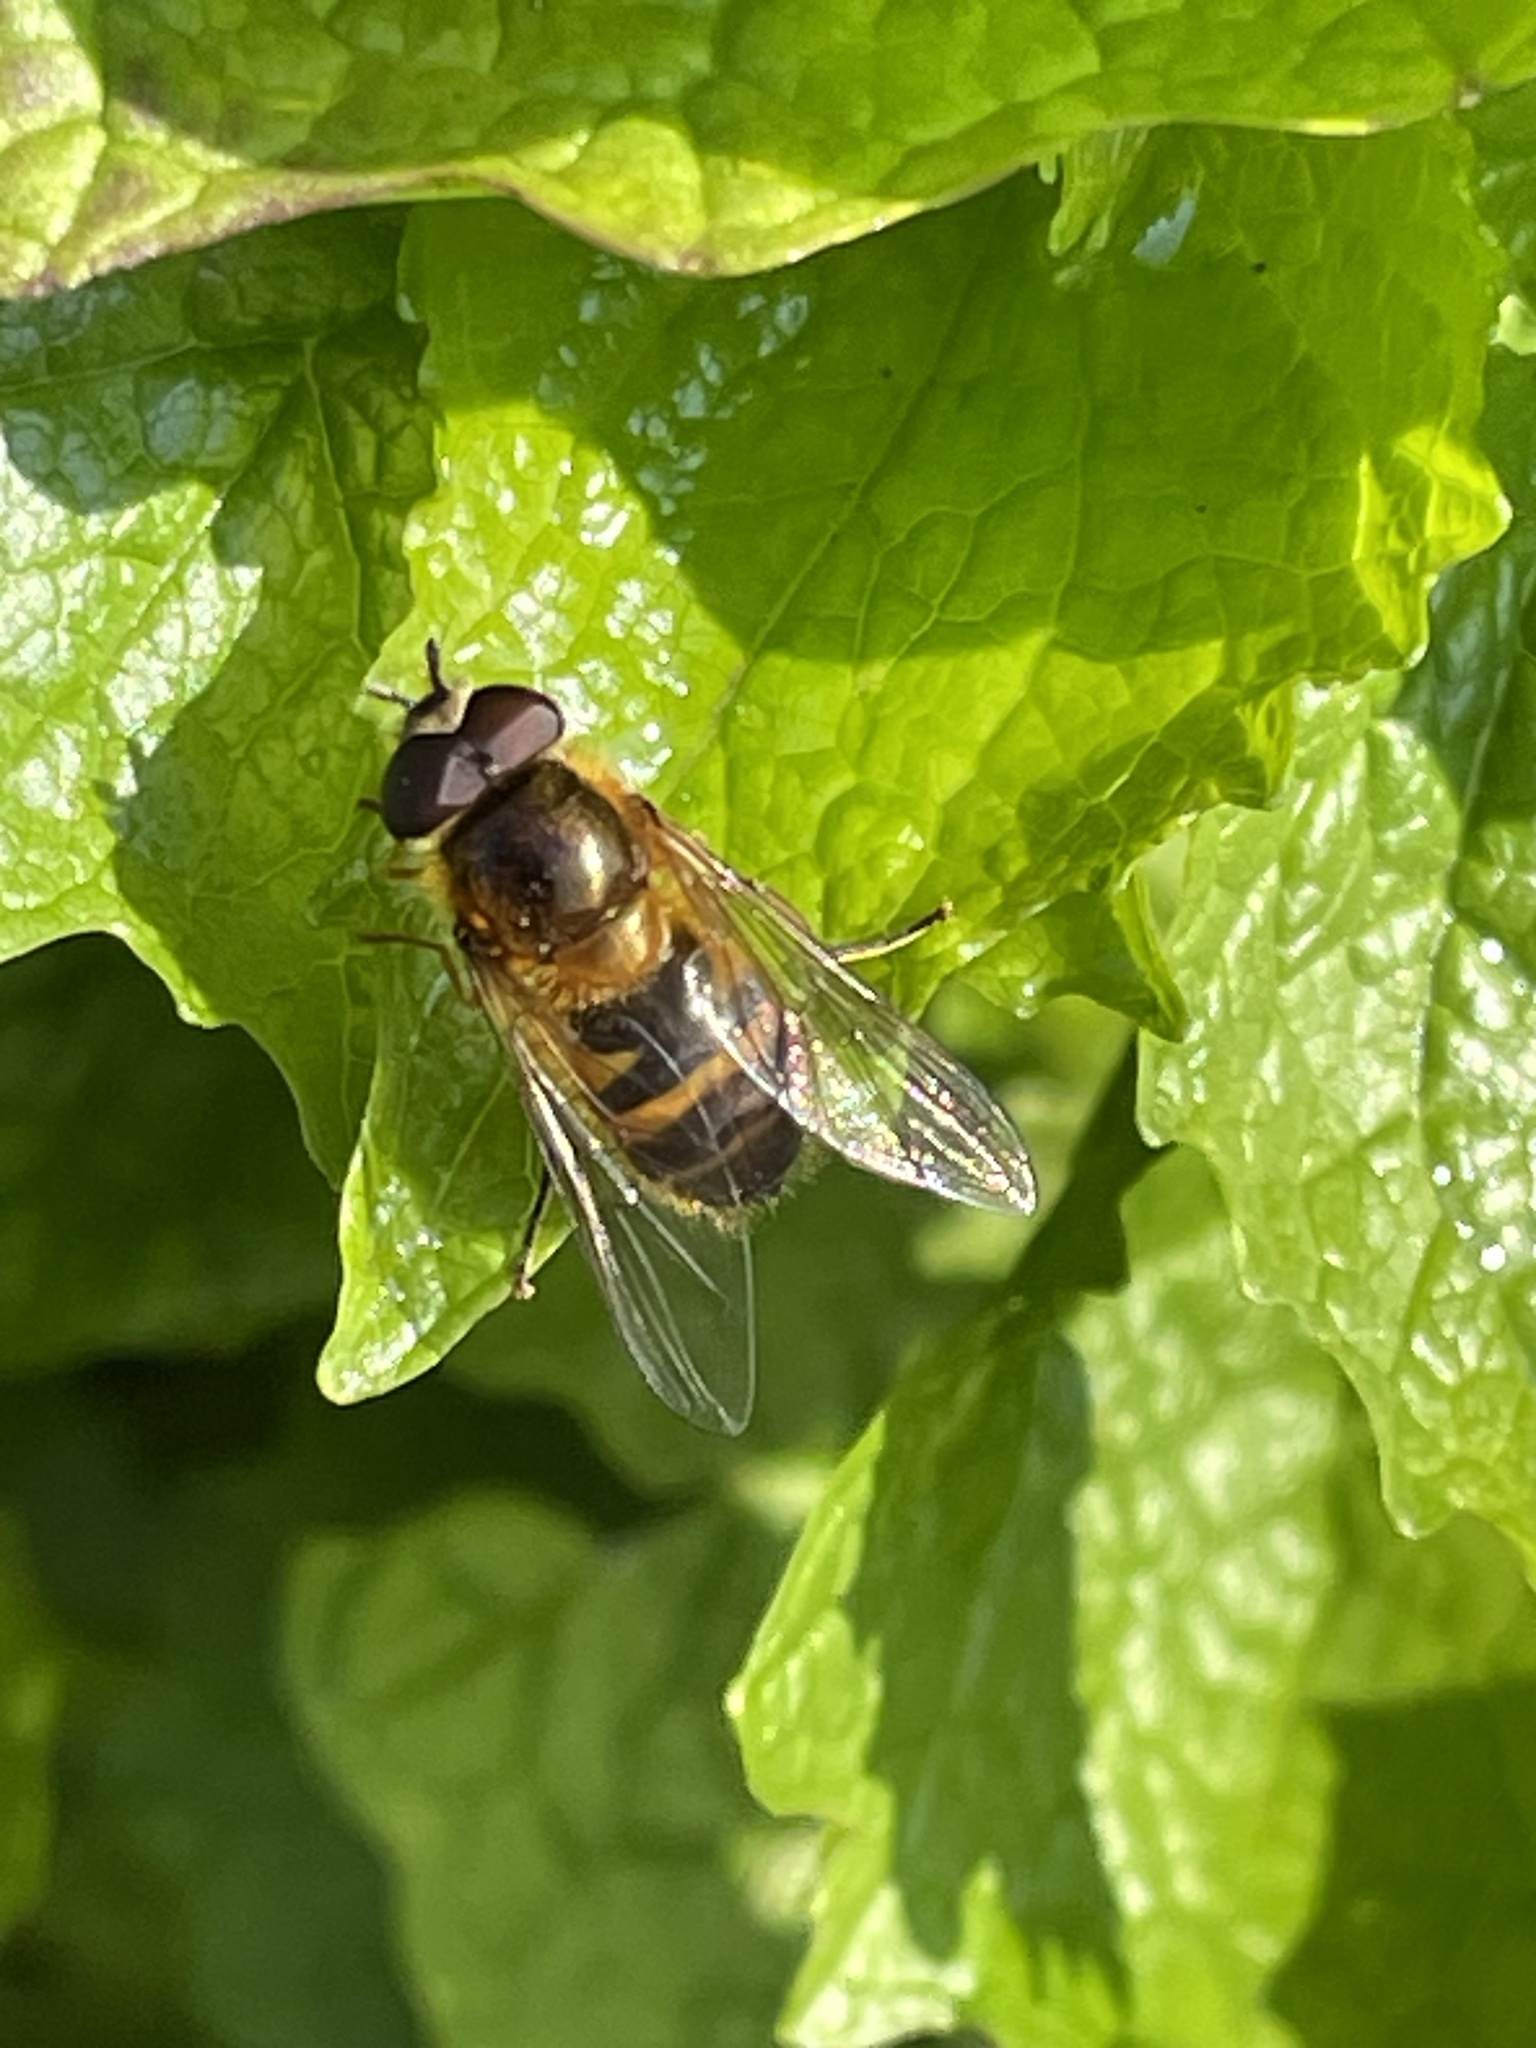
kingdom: Animalia
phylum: Arthropoda
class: Insecta
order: Diptera
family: Syrphidae
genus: Epistrophe
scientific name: Epistrophe eligans
